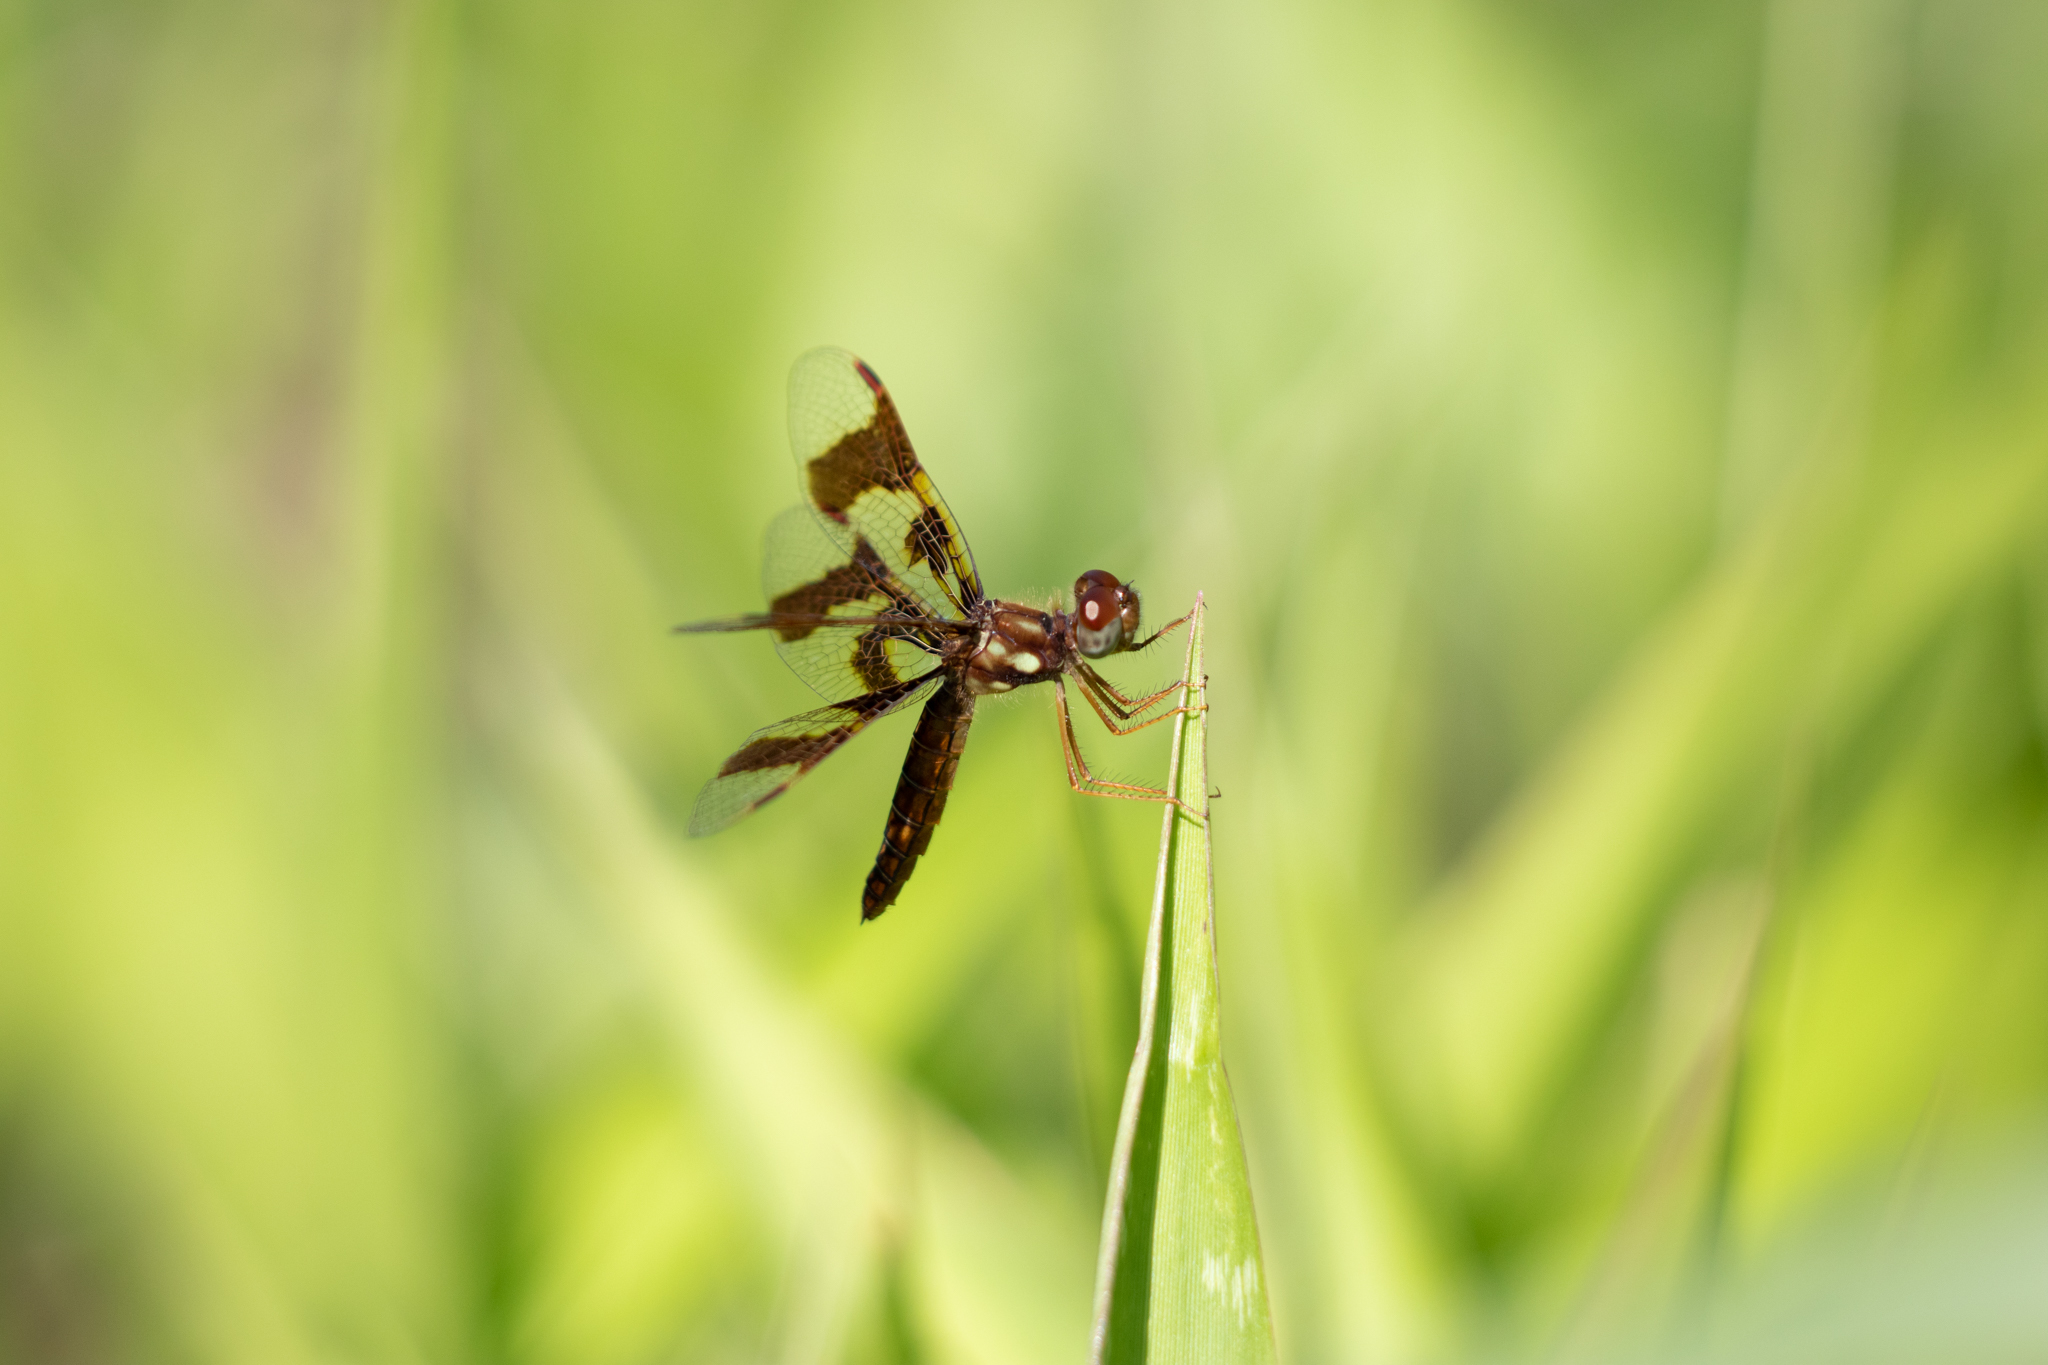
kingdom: Animalia
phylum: Arthropoda
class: Insecta
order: Odonata
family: Libellulidae
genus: Perithemis
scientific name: Perithemis tenera
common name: Eastern amberwing
